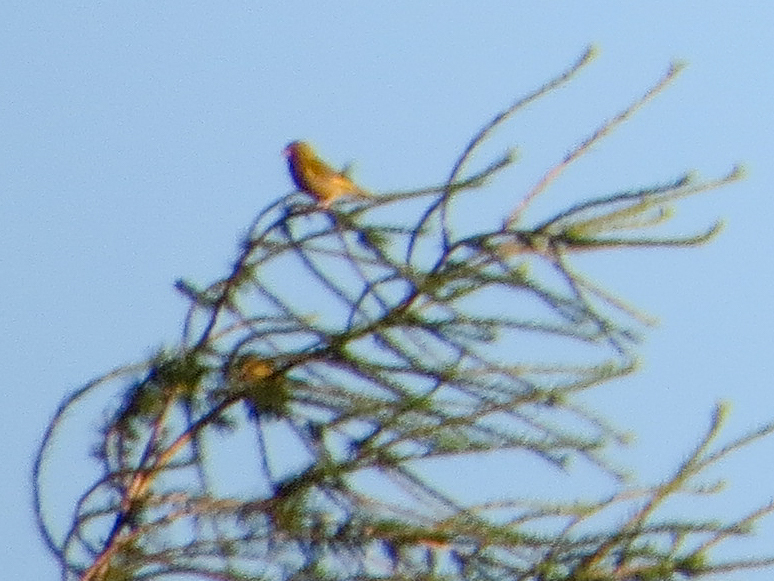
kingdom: Plantae
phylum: Tracheophyta
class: Liliopsida
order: Poales
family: Poaceae
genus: Chloris
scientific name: Chloris chloris
